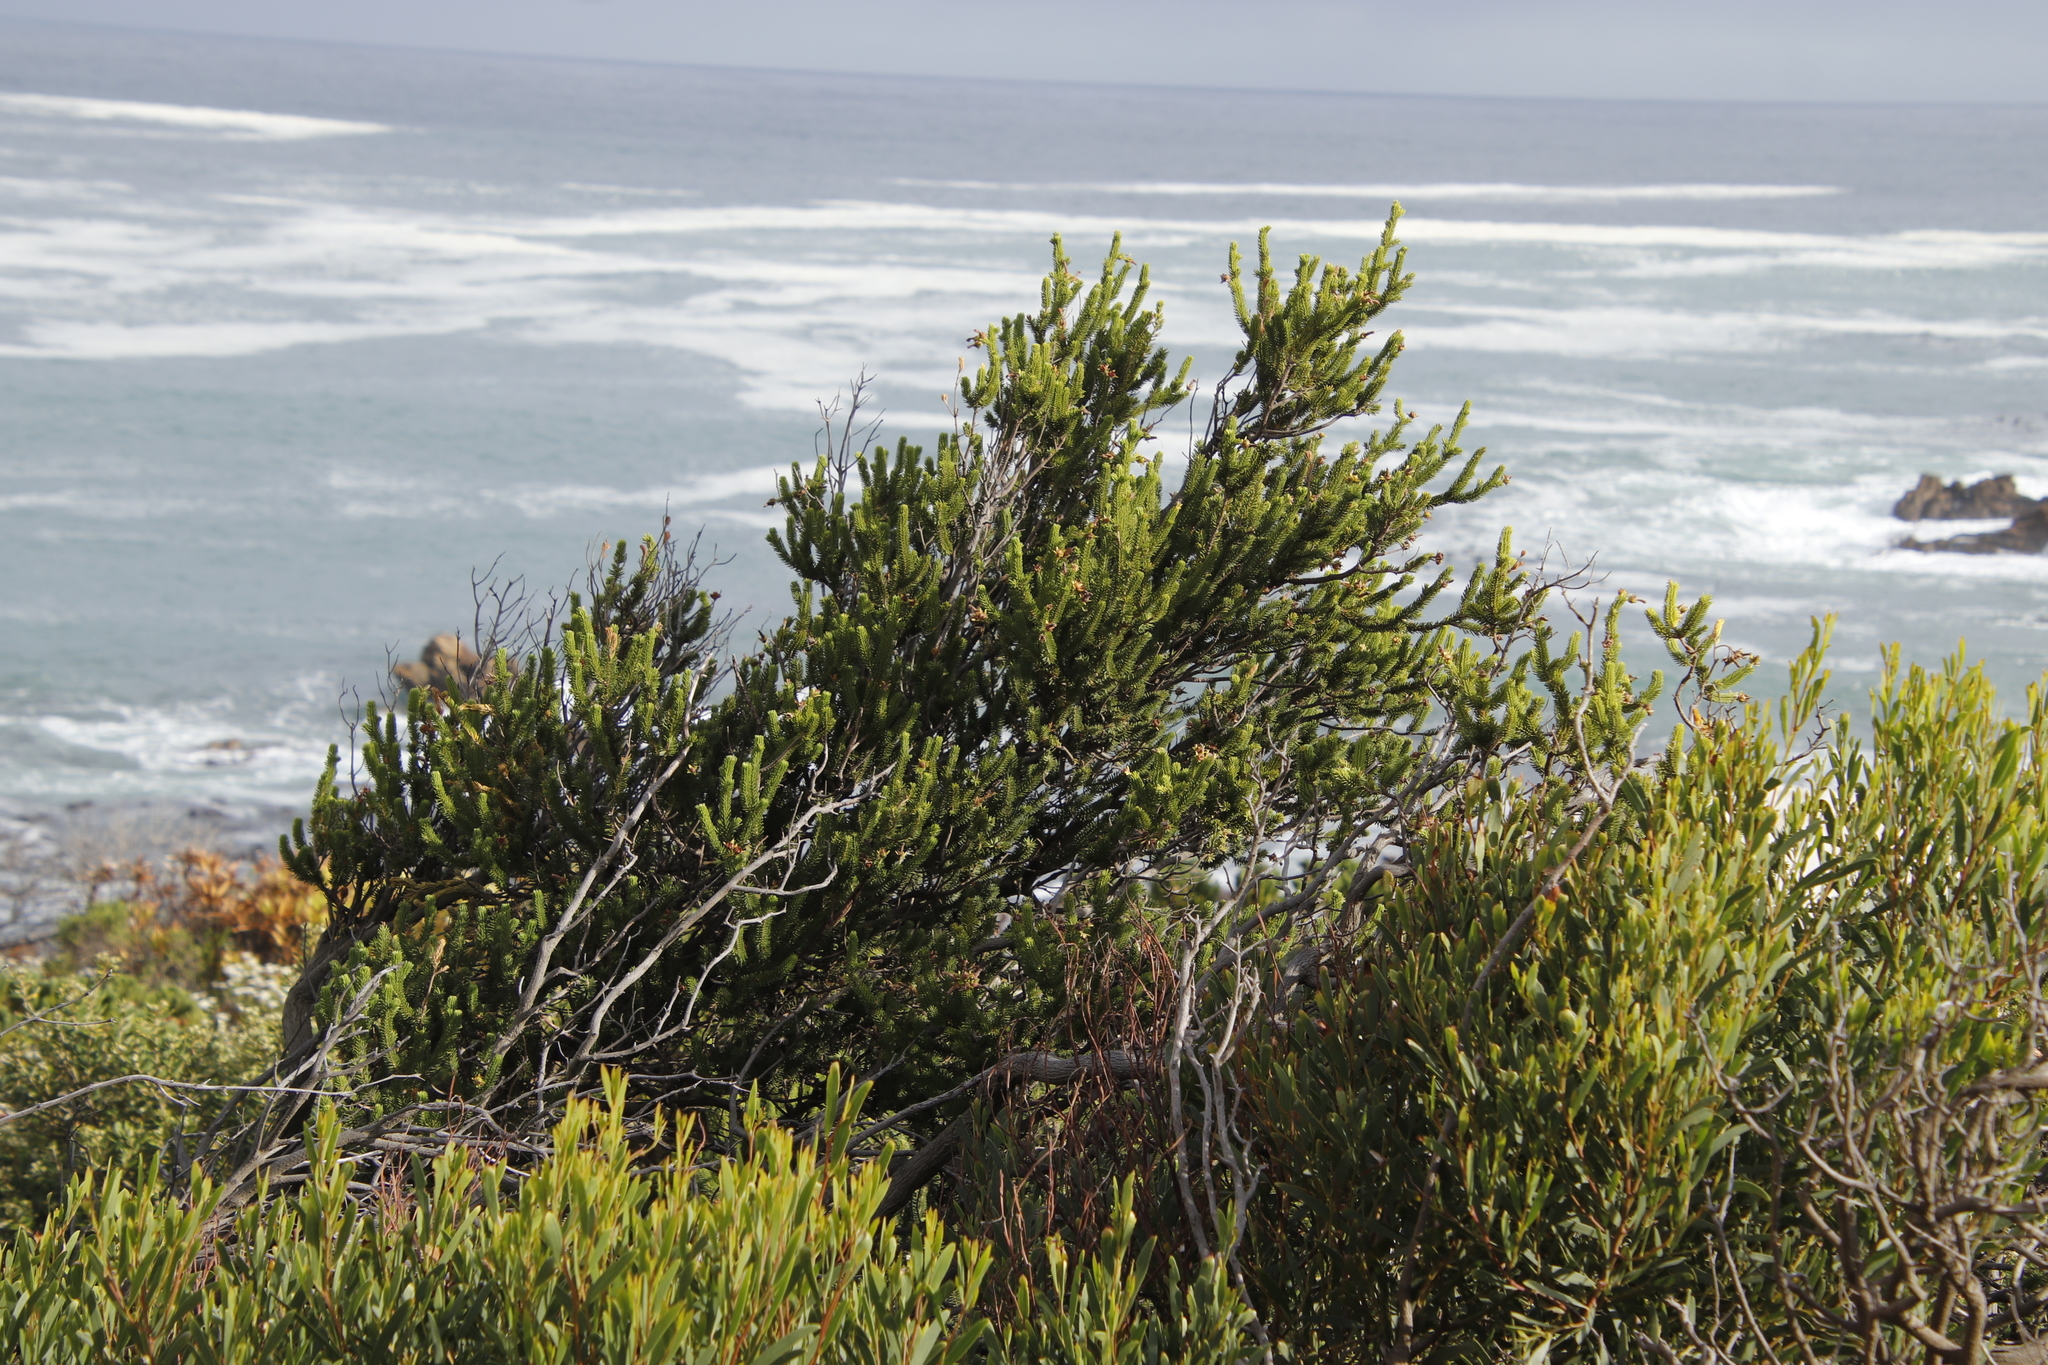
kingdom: Plantae
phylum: Tracheophyta
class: Magnoliopsida
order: Ericales
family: Ericaceae
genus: Erica
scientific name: Erica brachialis
